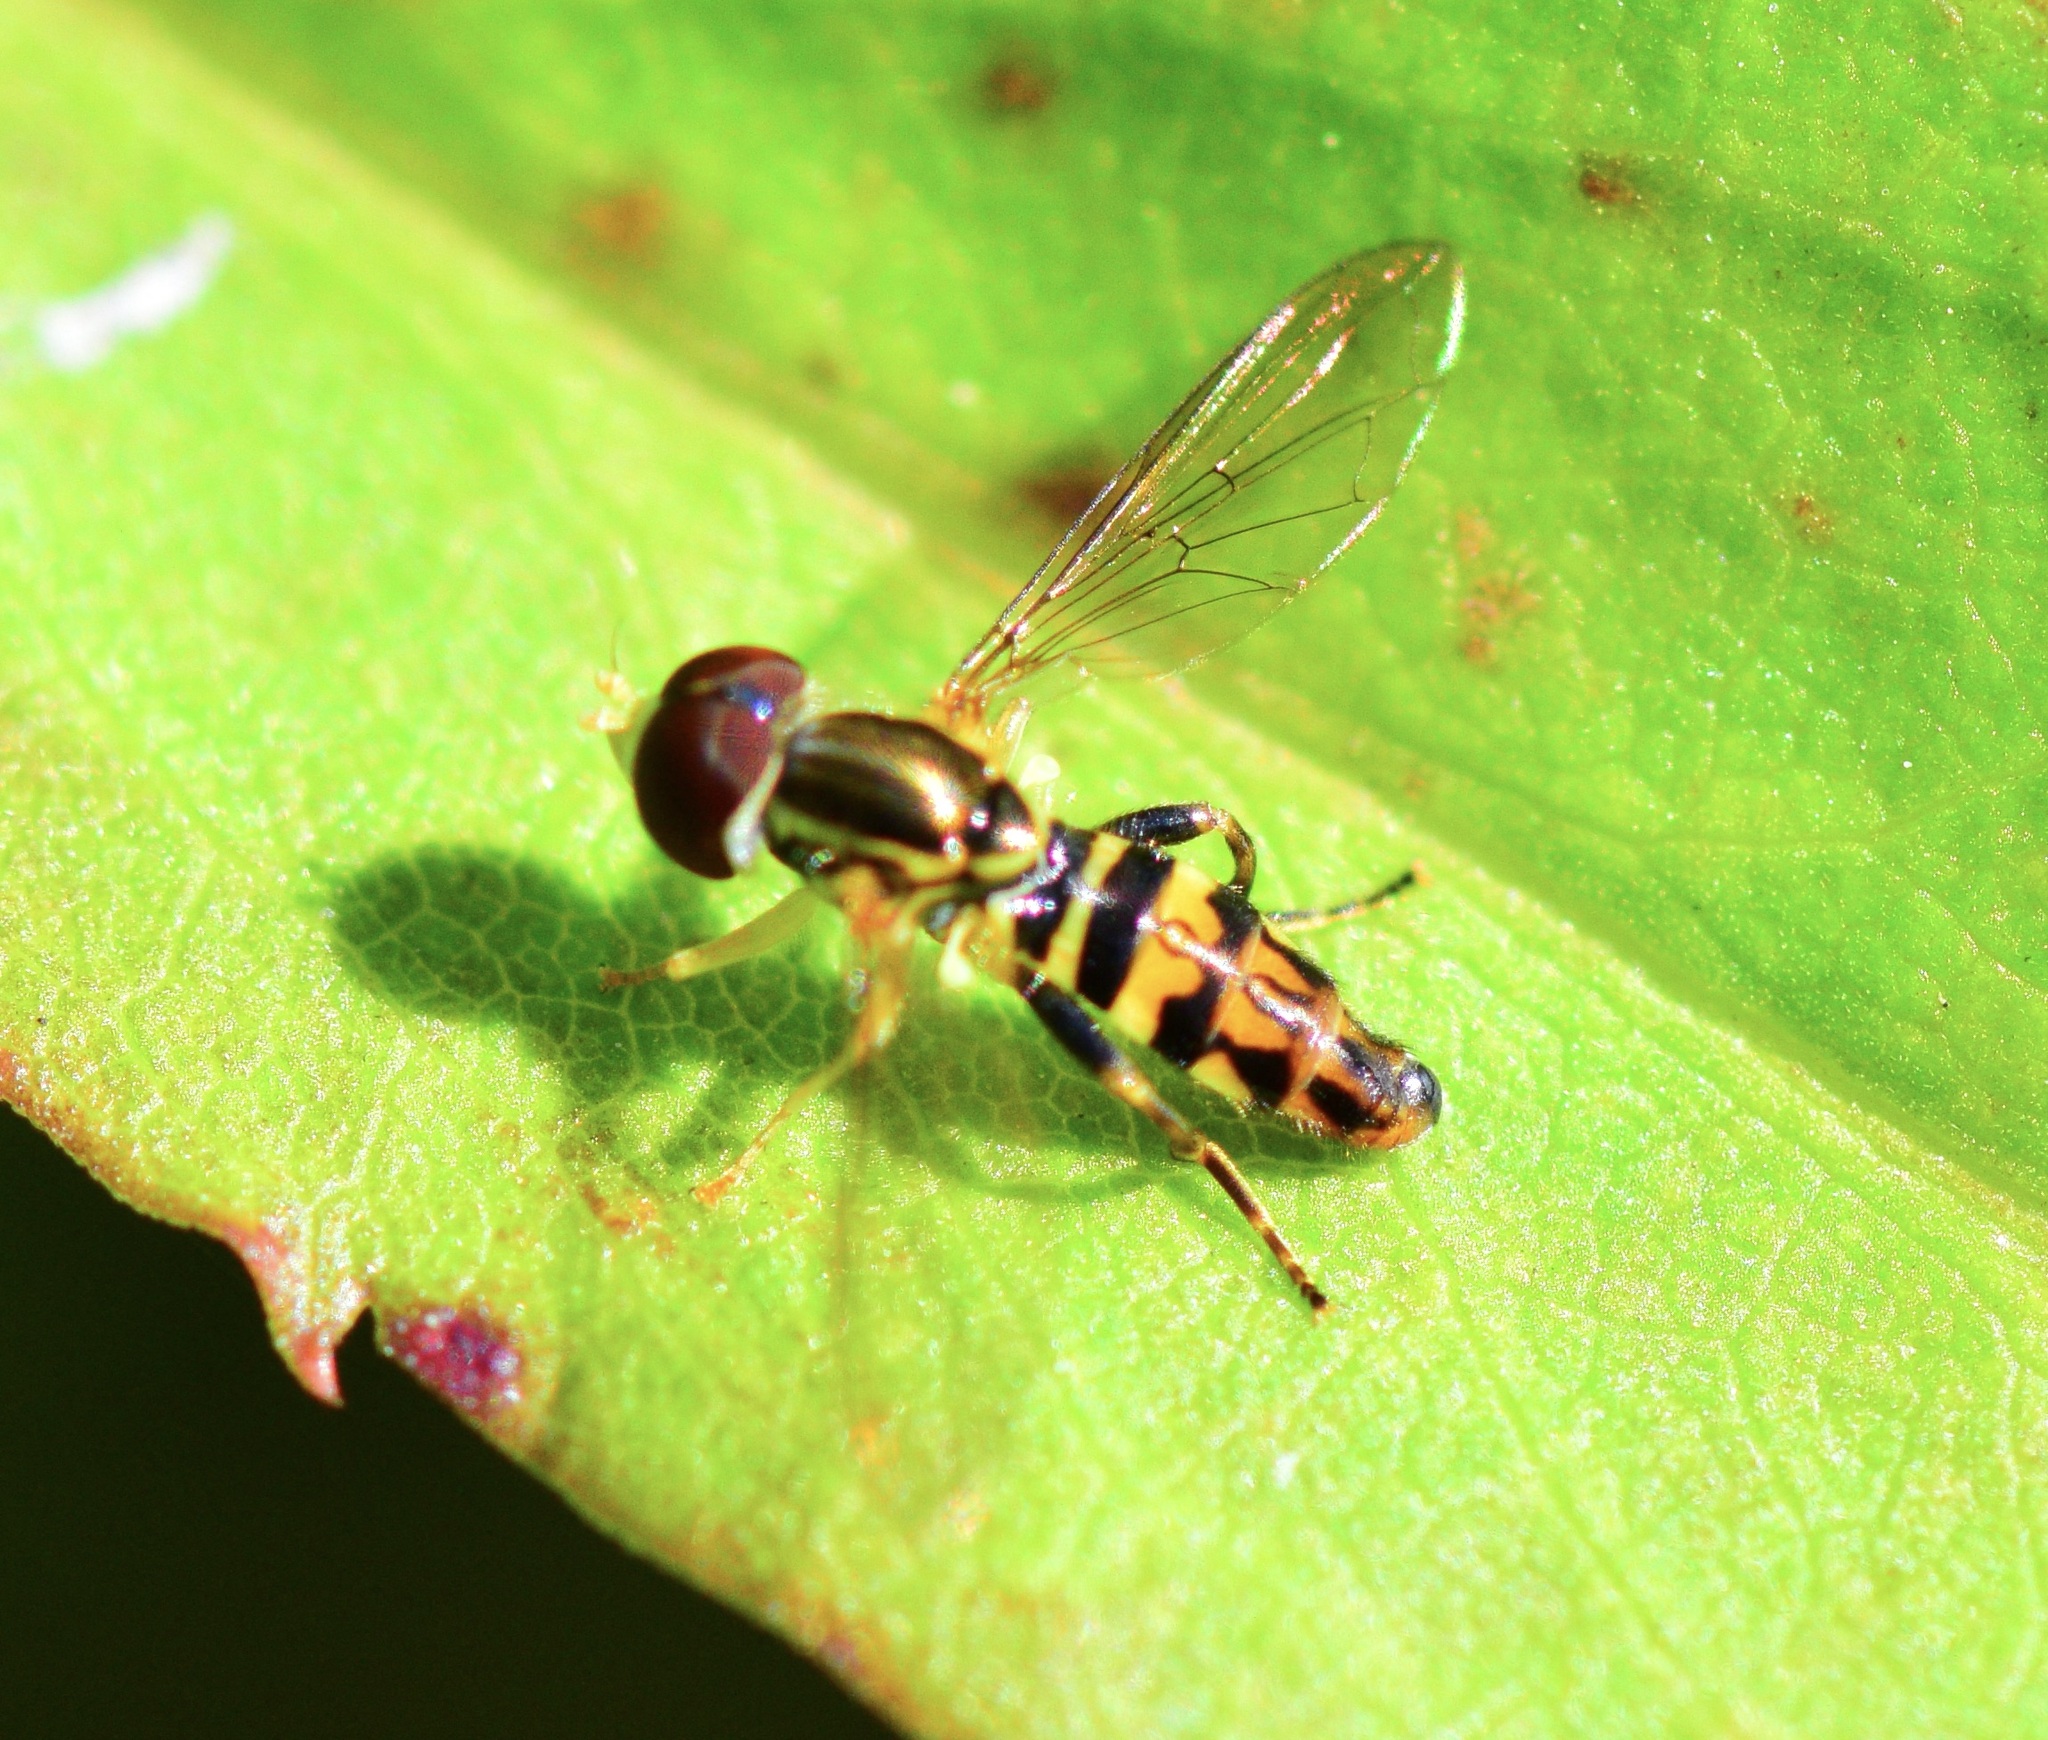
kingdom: Animalia
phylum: Arthropoda
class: Insecta
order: Diptera
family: Syrphidae
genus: Toxomerus
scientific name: Toxomerus geminatus
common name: Eastern calligrapher
